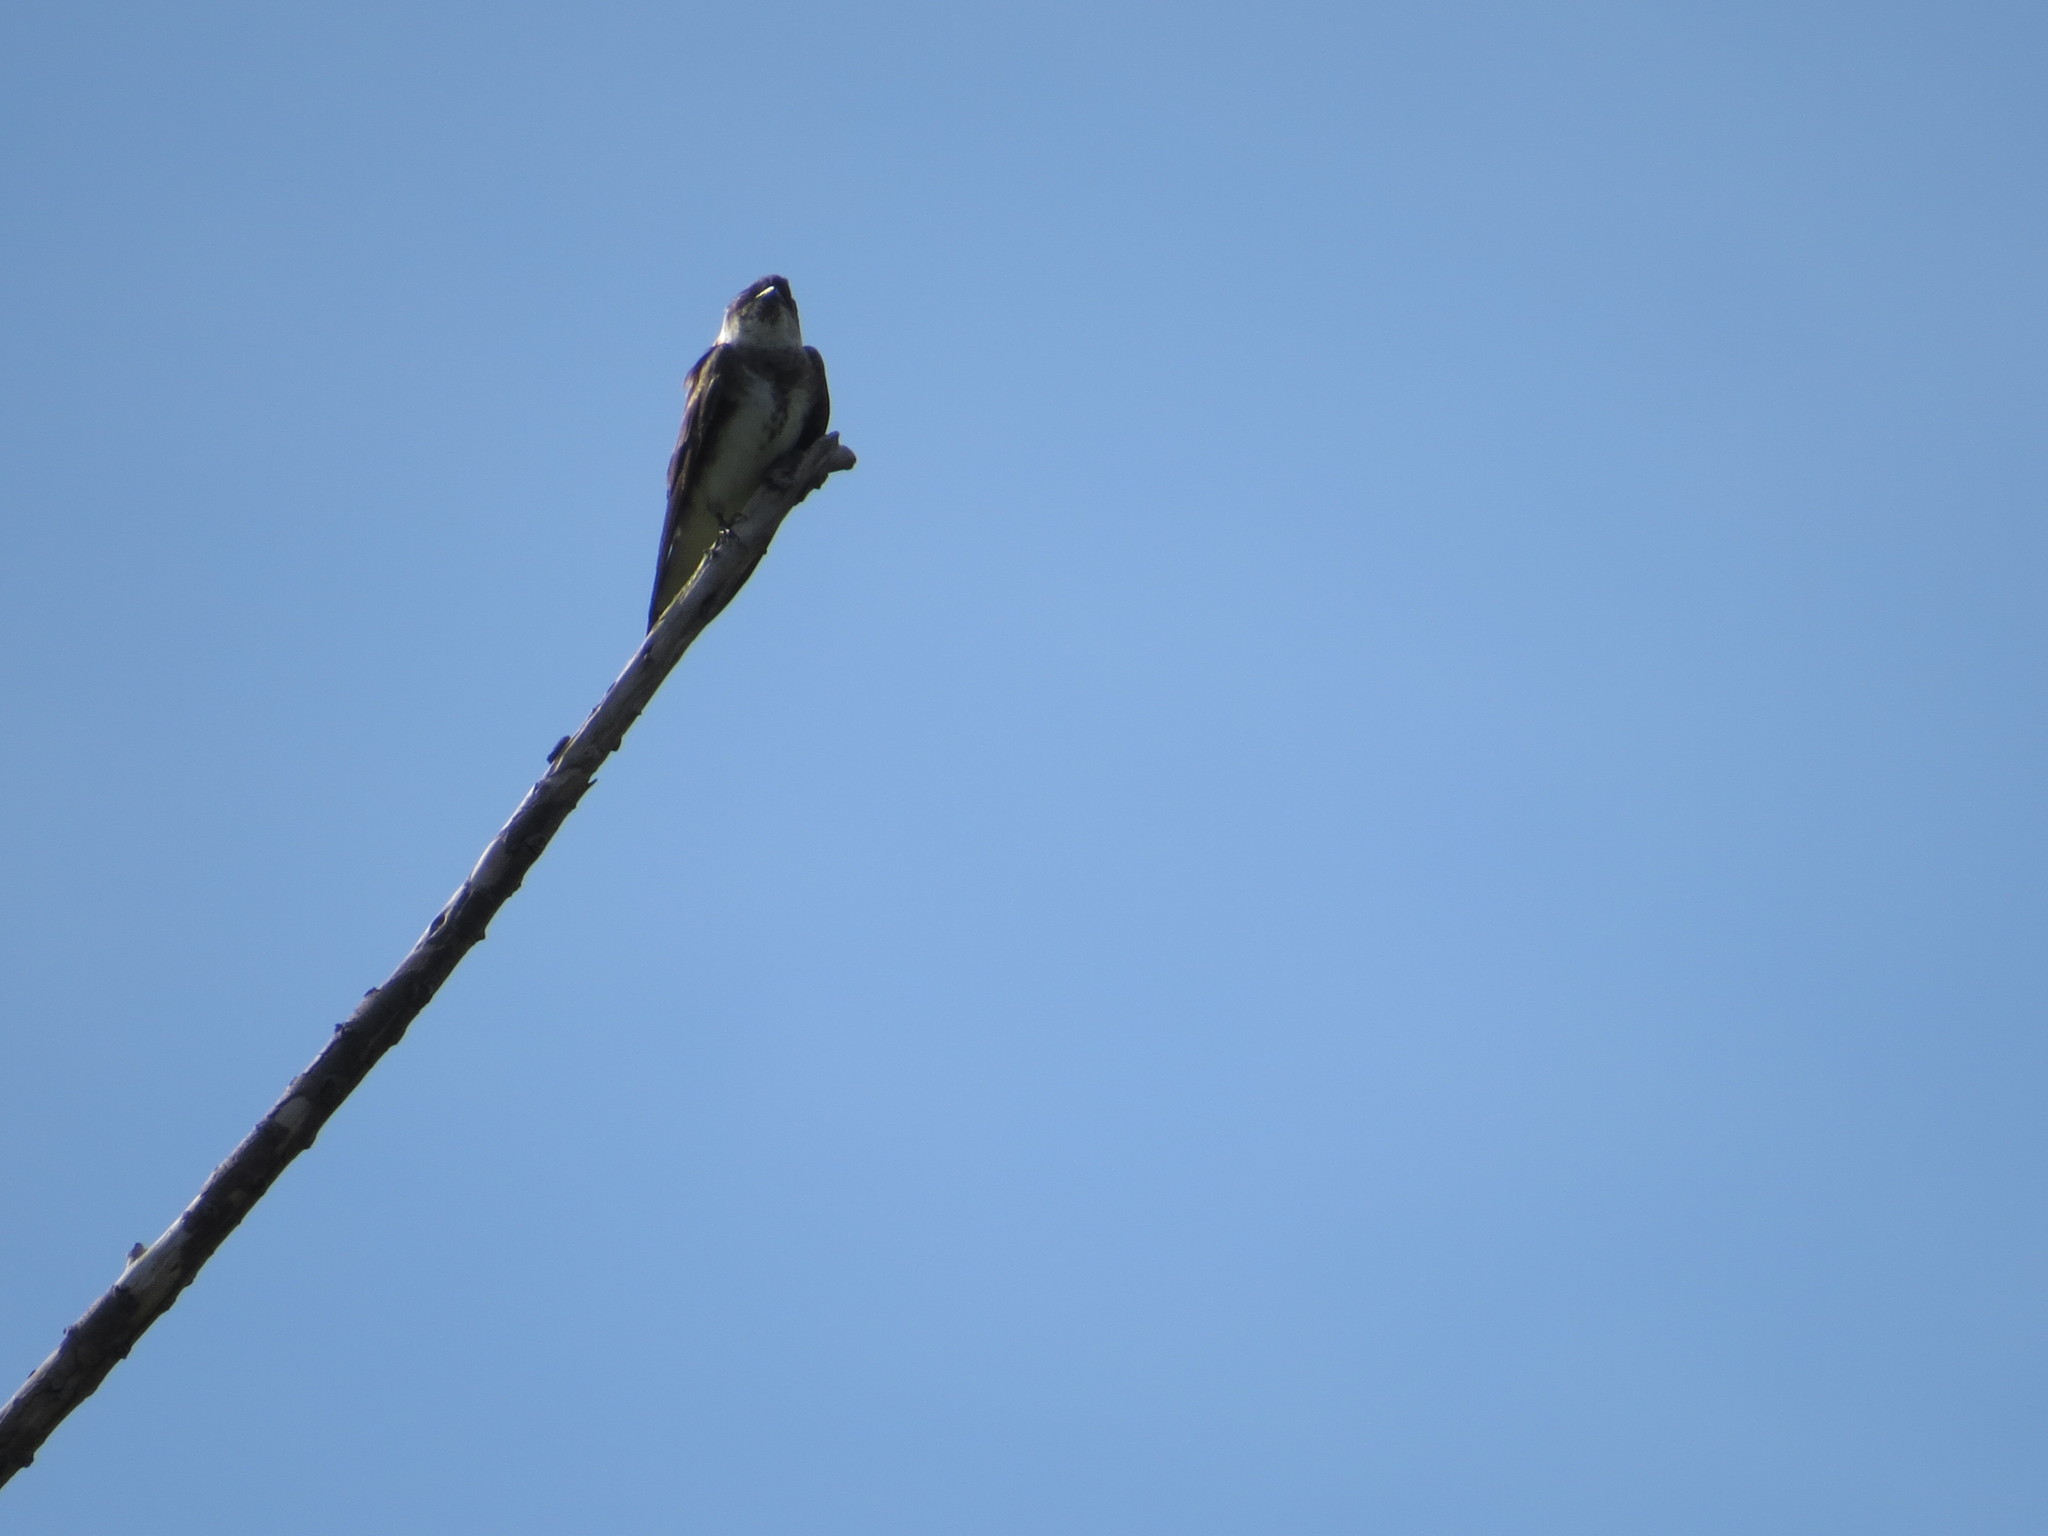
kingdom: Animalia
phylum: Chordata
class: Aves
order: Passeriformes
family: Hirundinidae
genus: Progne
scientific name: Progne tapera
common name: Brown-chested martin
